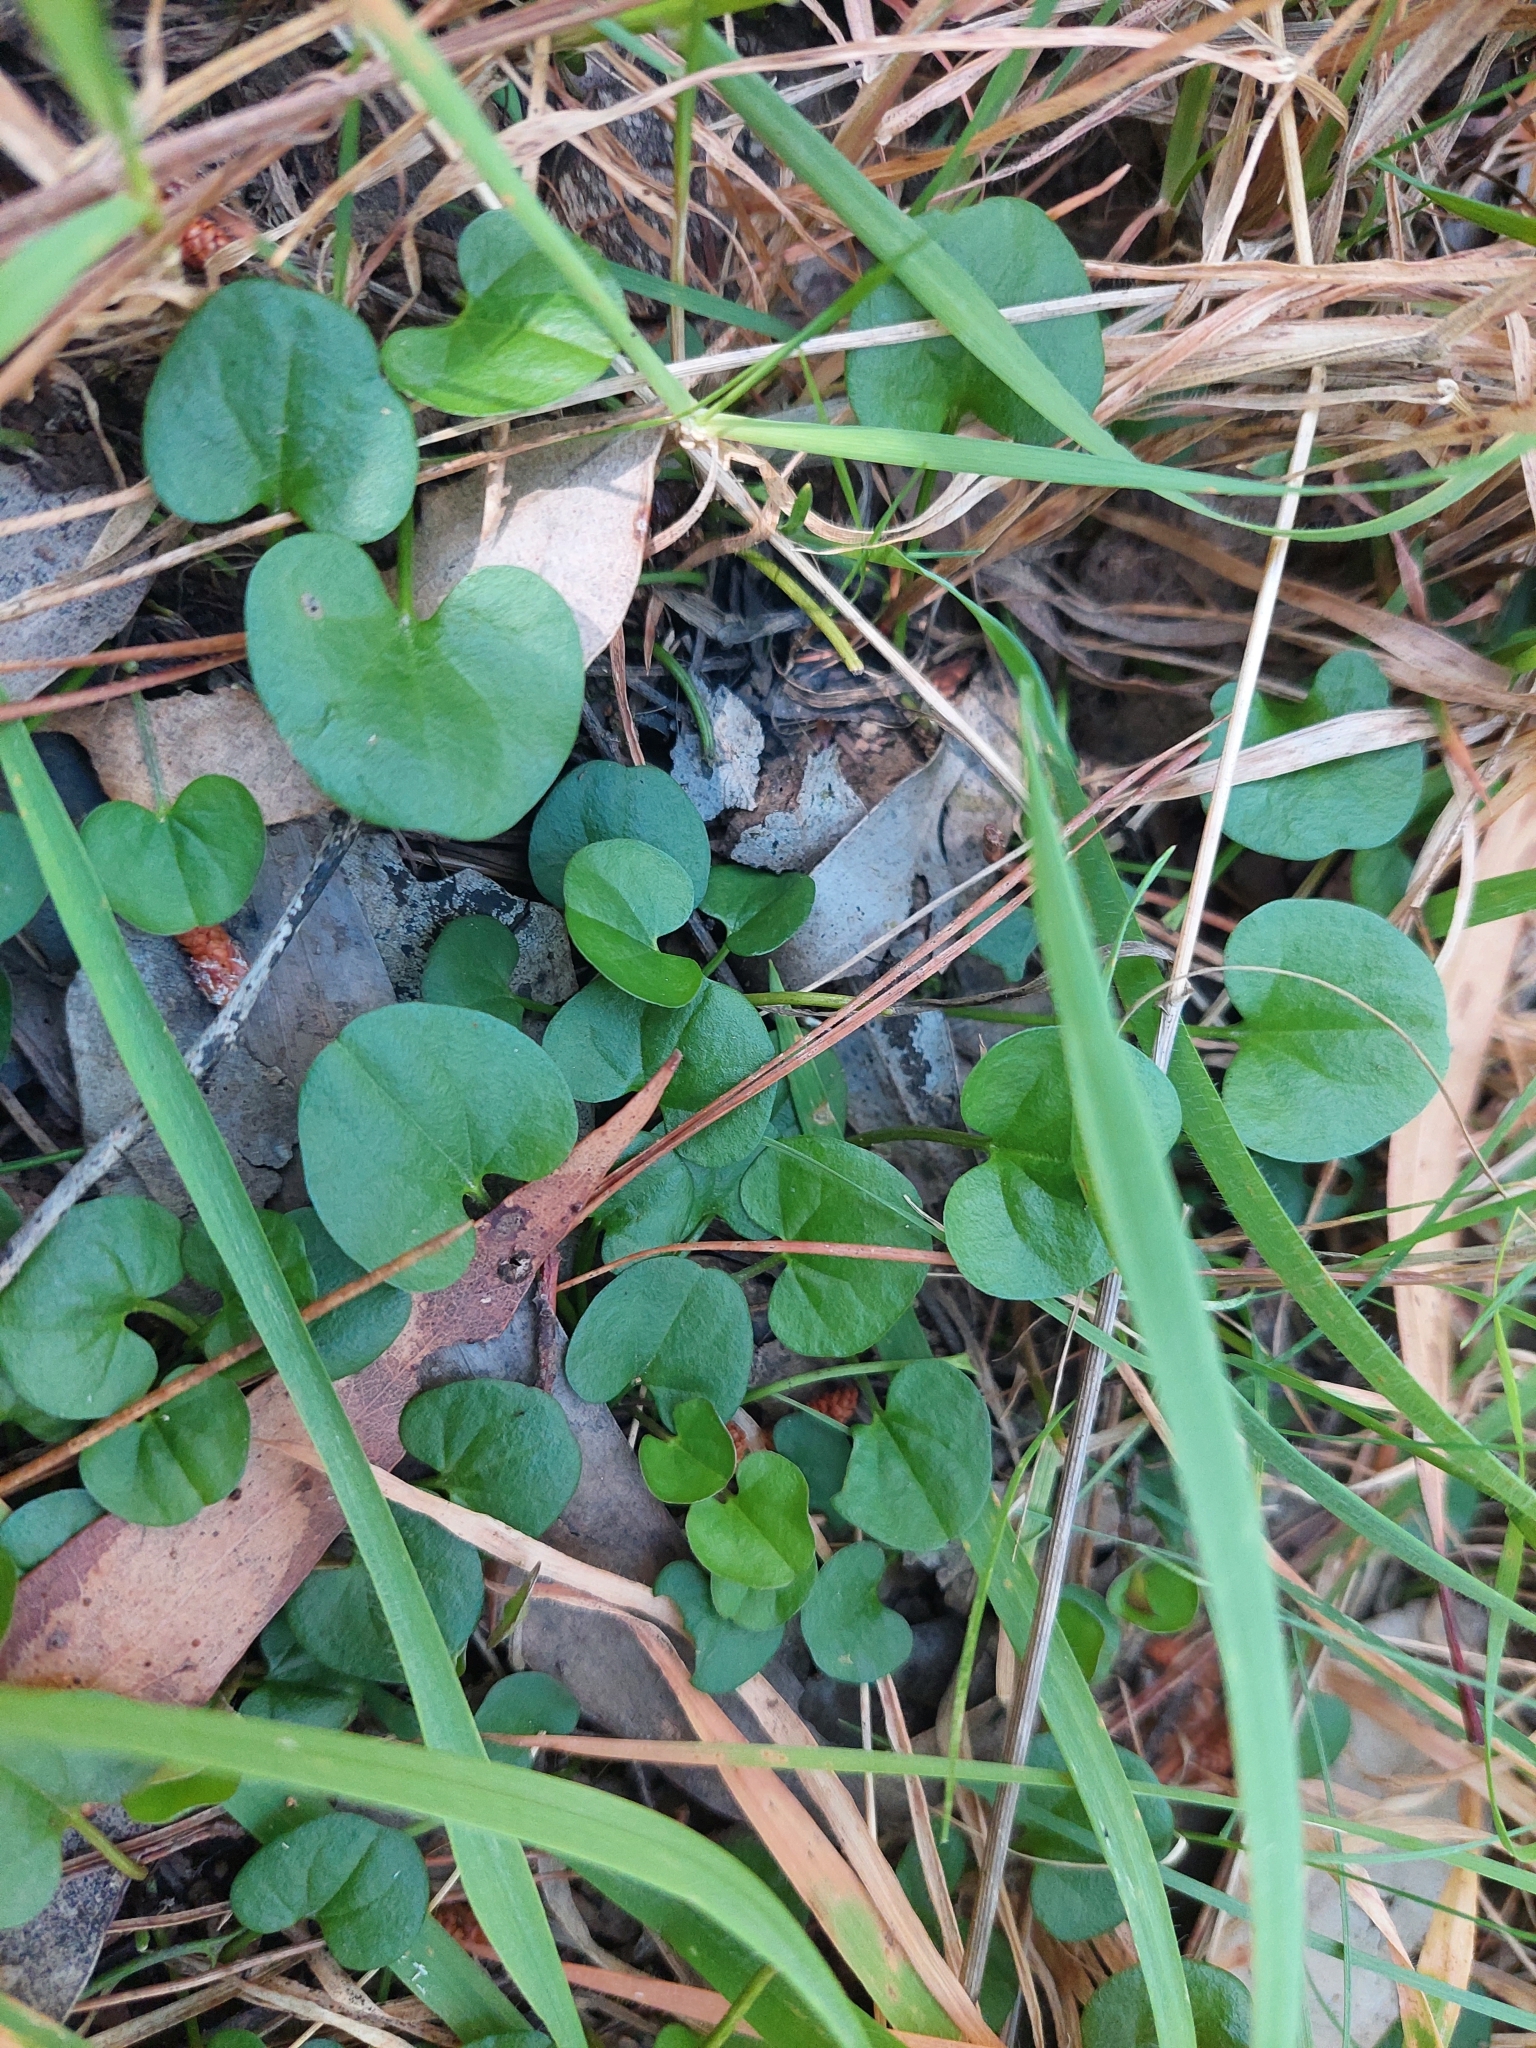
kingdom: Plantae
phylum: Tracheophyta
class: Magnoliopsida
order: Solanales
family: Convolvulaceae
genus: Dichondra
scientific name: Dichondra repens
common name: Kidneyweed
